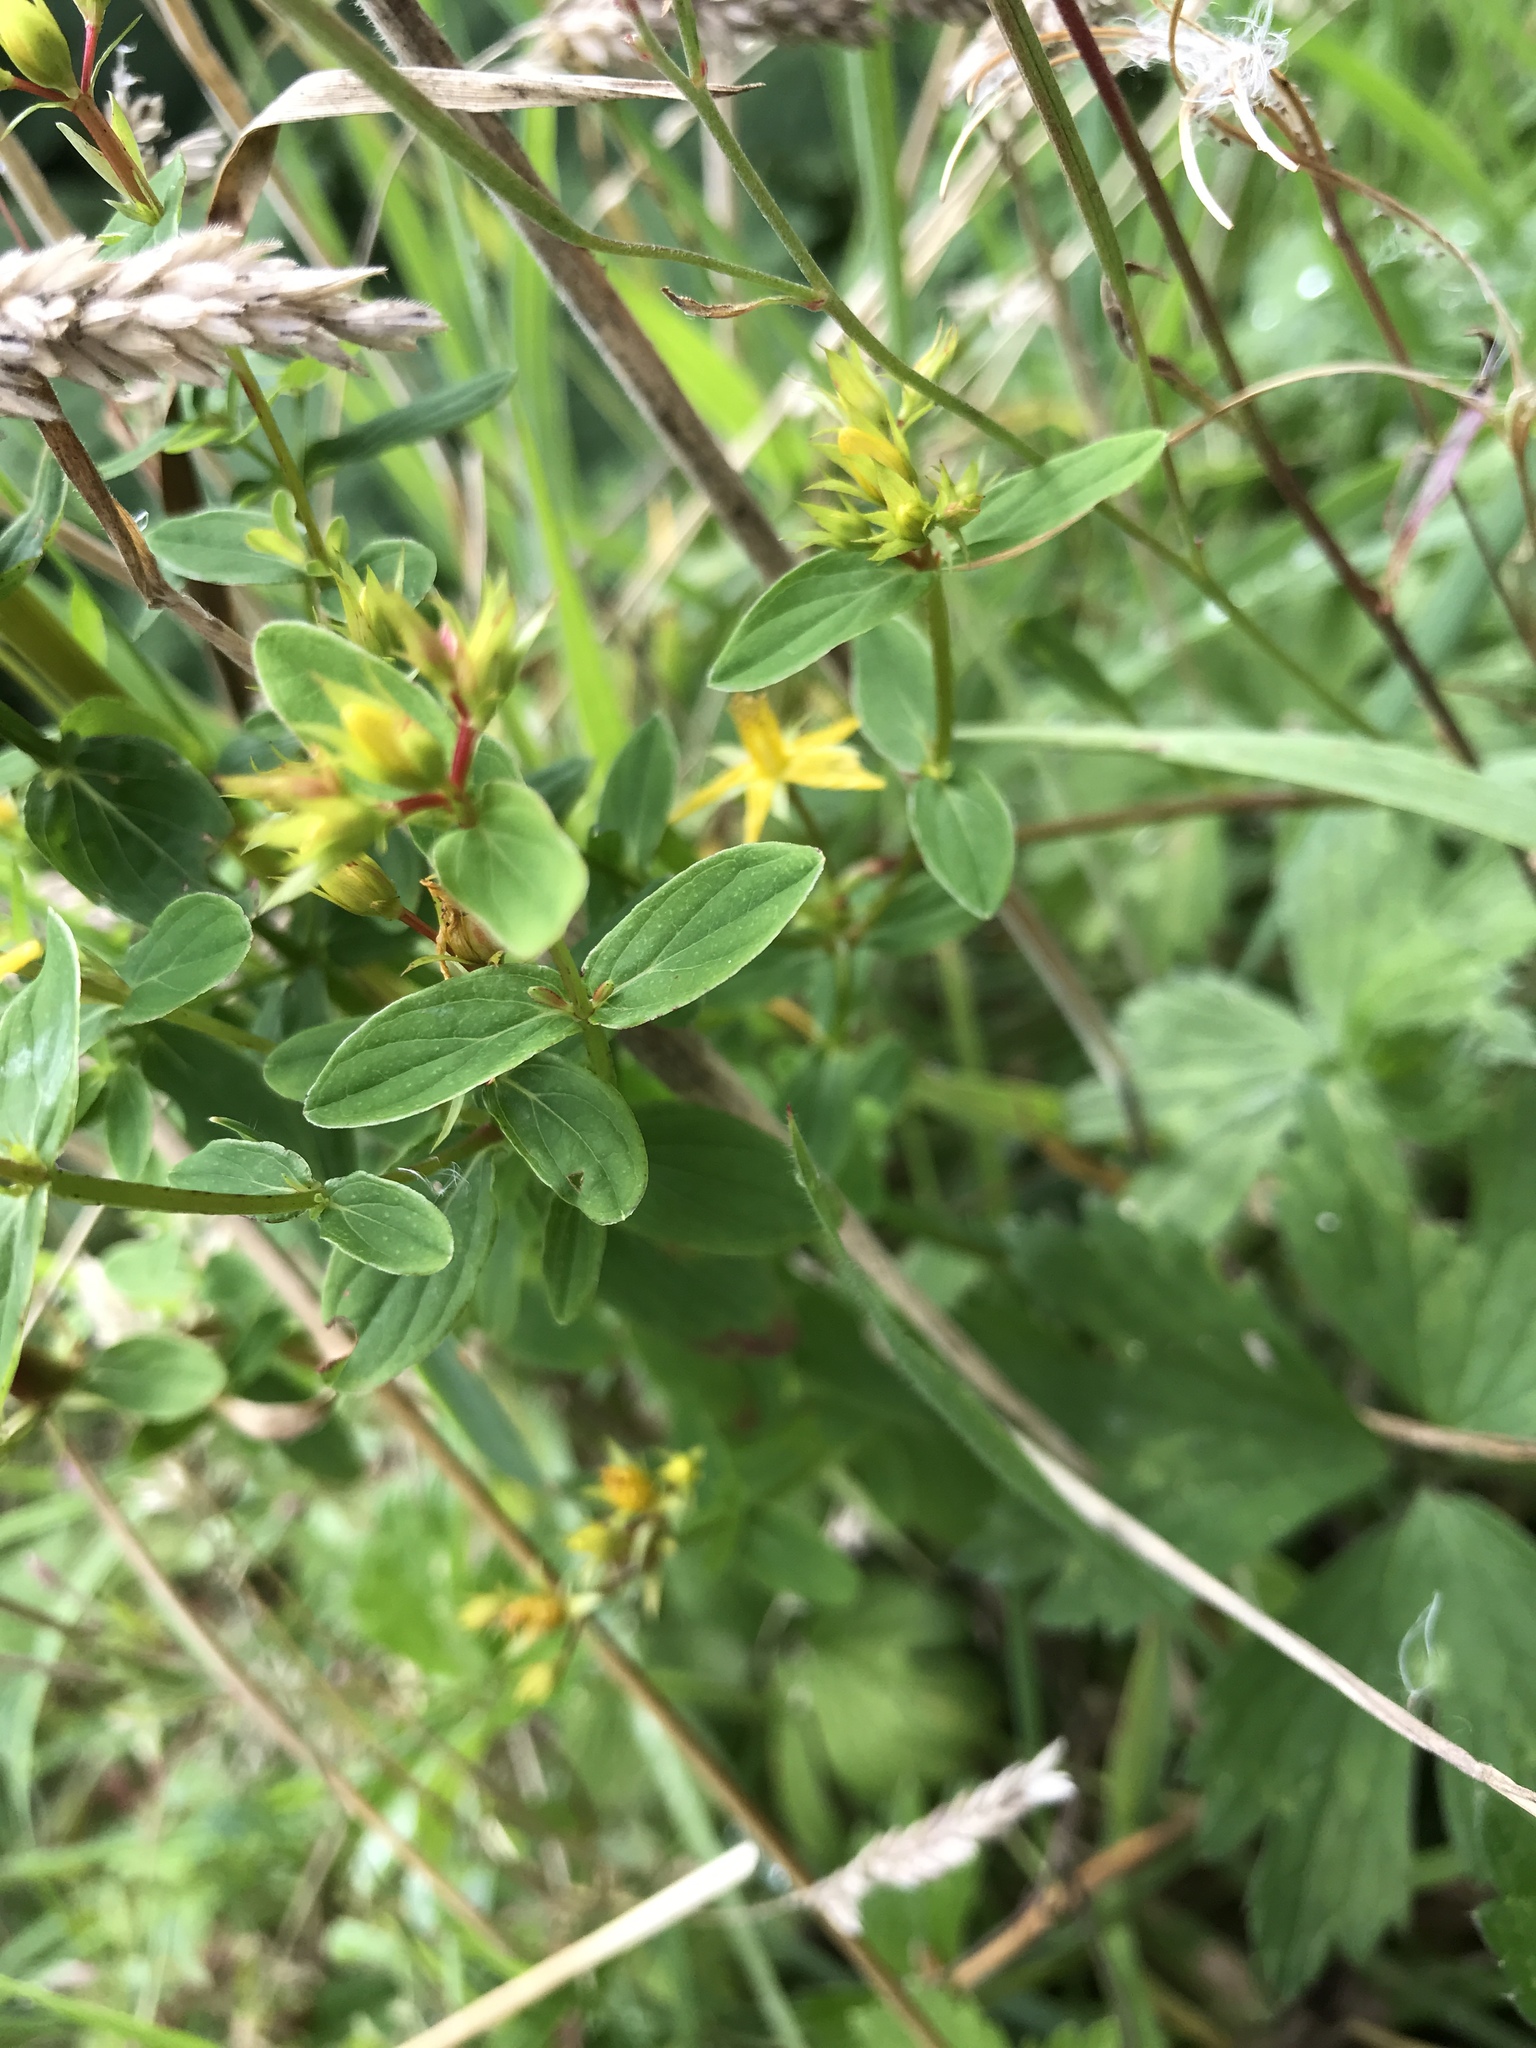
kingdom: Plantae
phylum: Tracheophyta
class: Magnoliopsida
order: Malpighiales
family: Hypericaceae
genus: Hypericum
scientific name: Hypericum tetrapterum
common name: Square-stalked st. john's-wort
